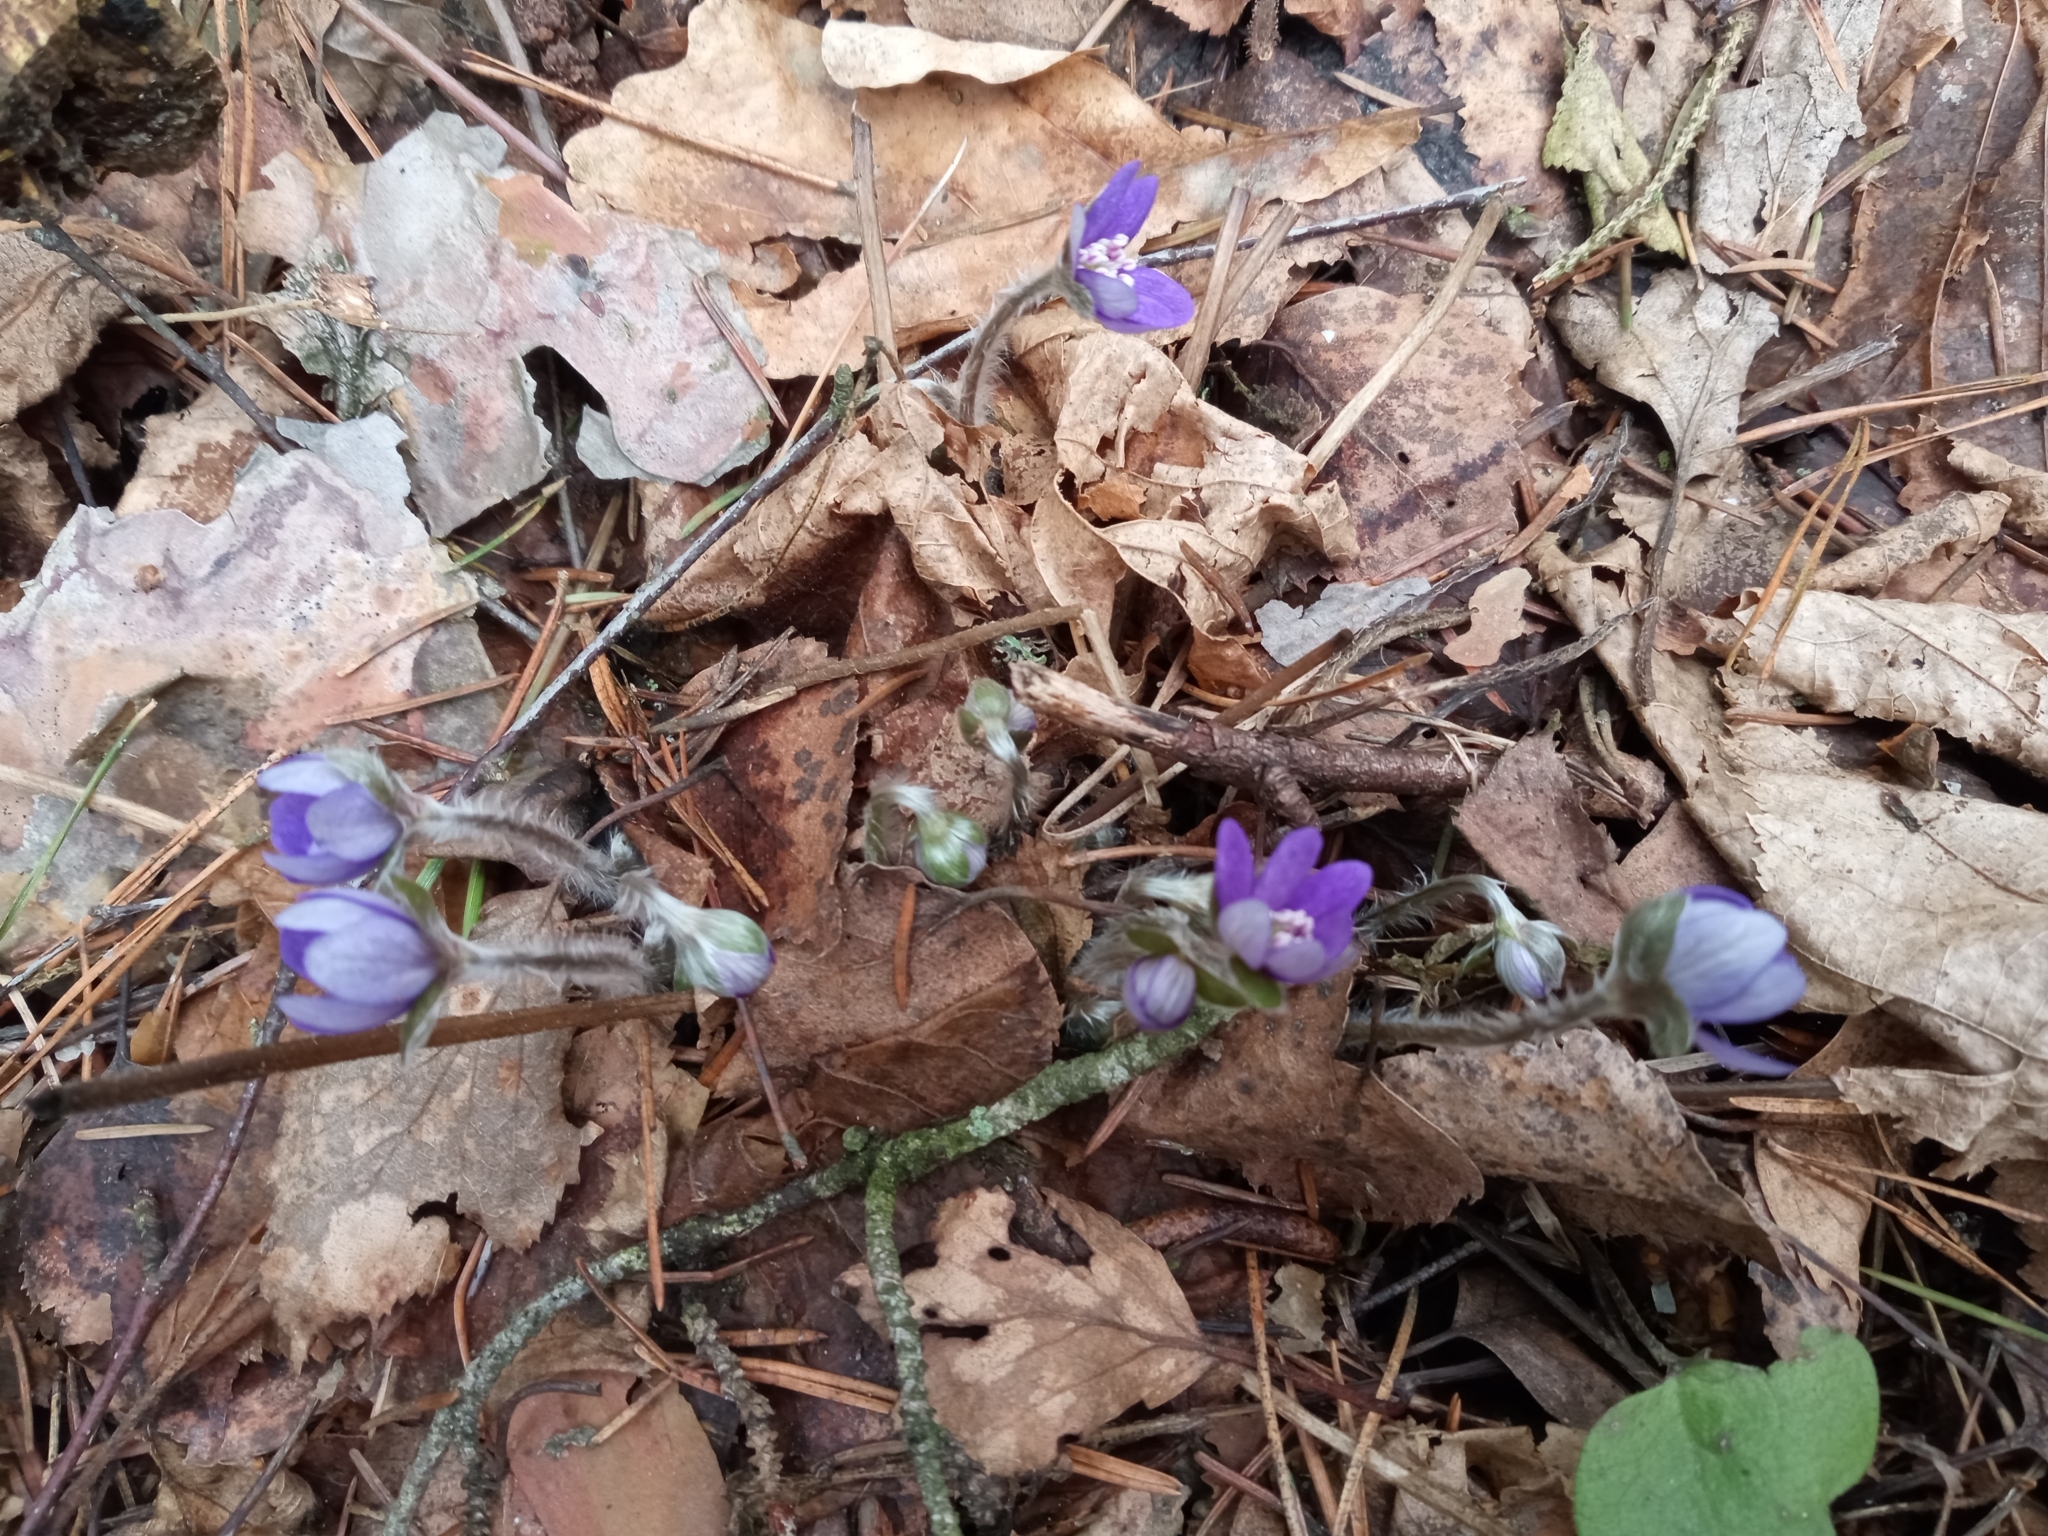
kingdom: Plantae
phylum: Tracheophyta
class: Magnoliopsida
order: Ranunculales
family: Ranunculaceae
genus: Hepatica
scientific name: Hepatica nobilis
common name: Liverleaf
